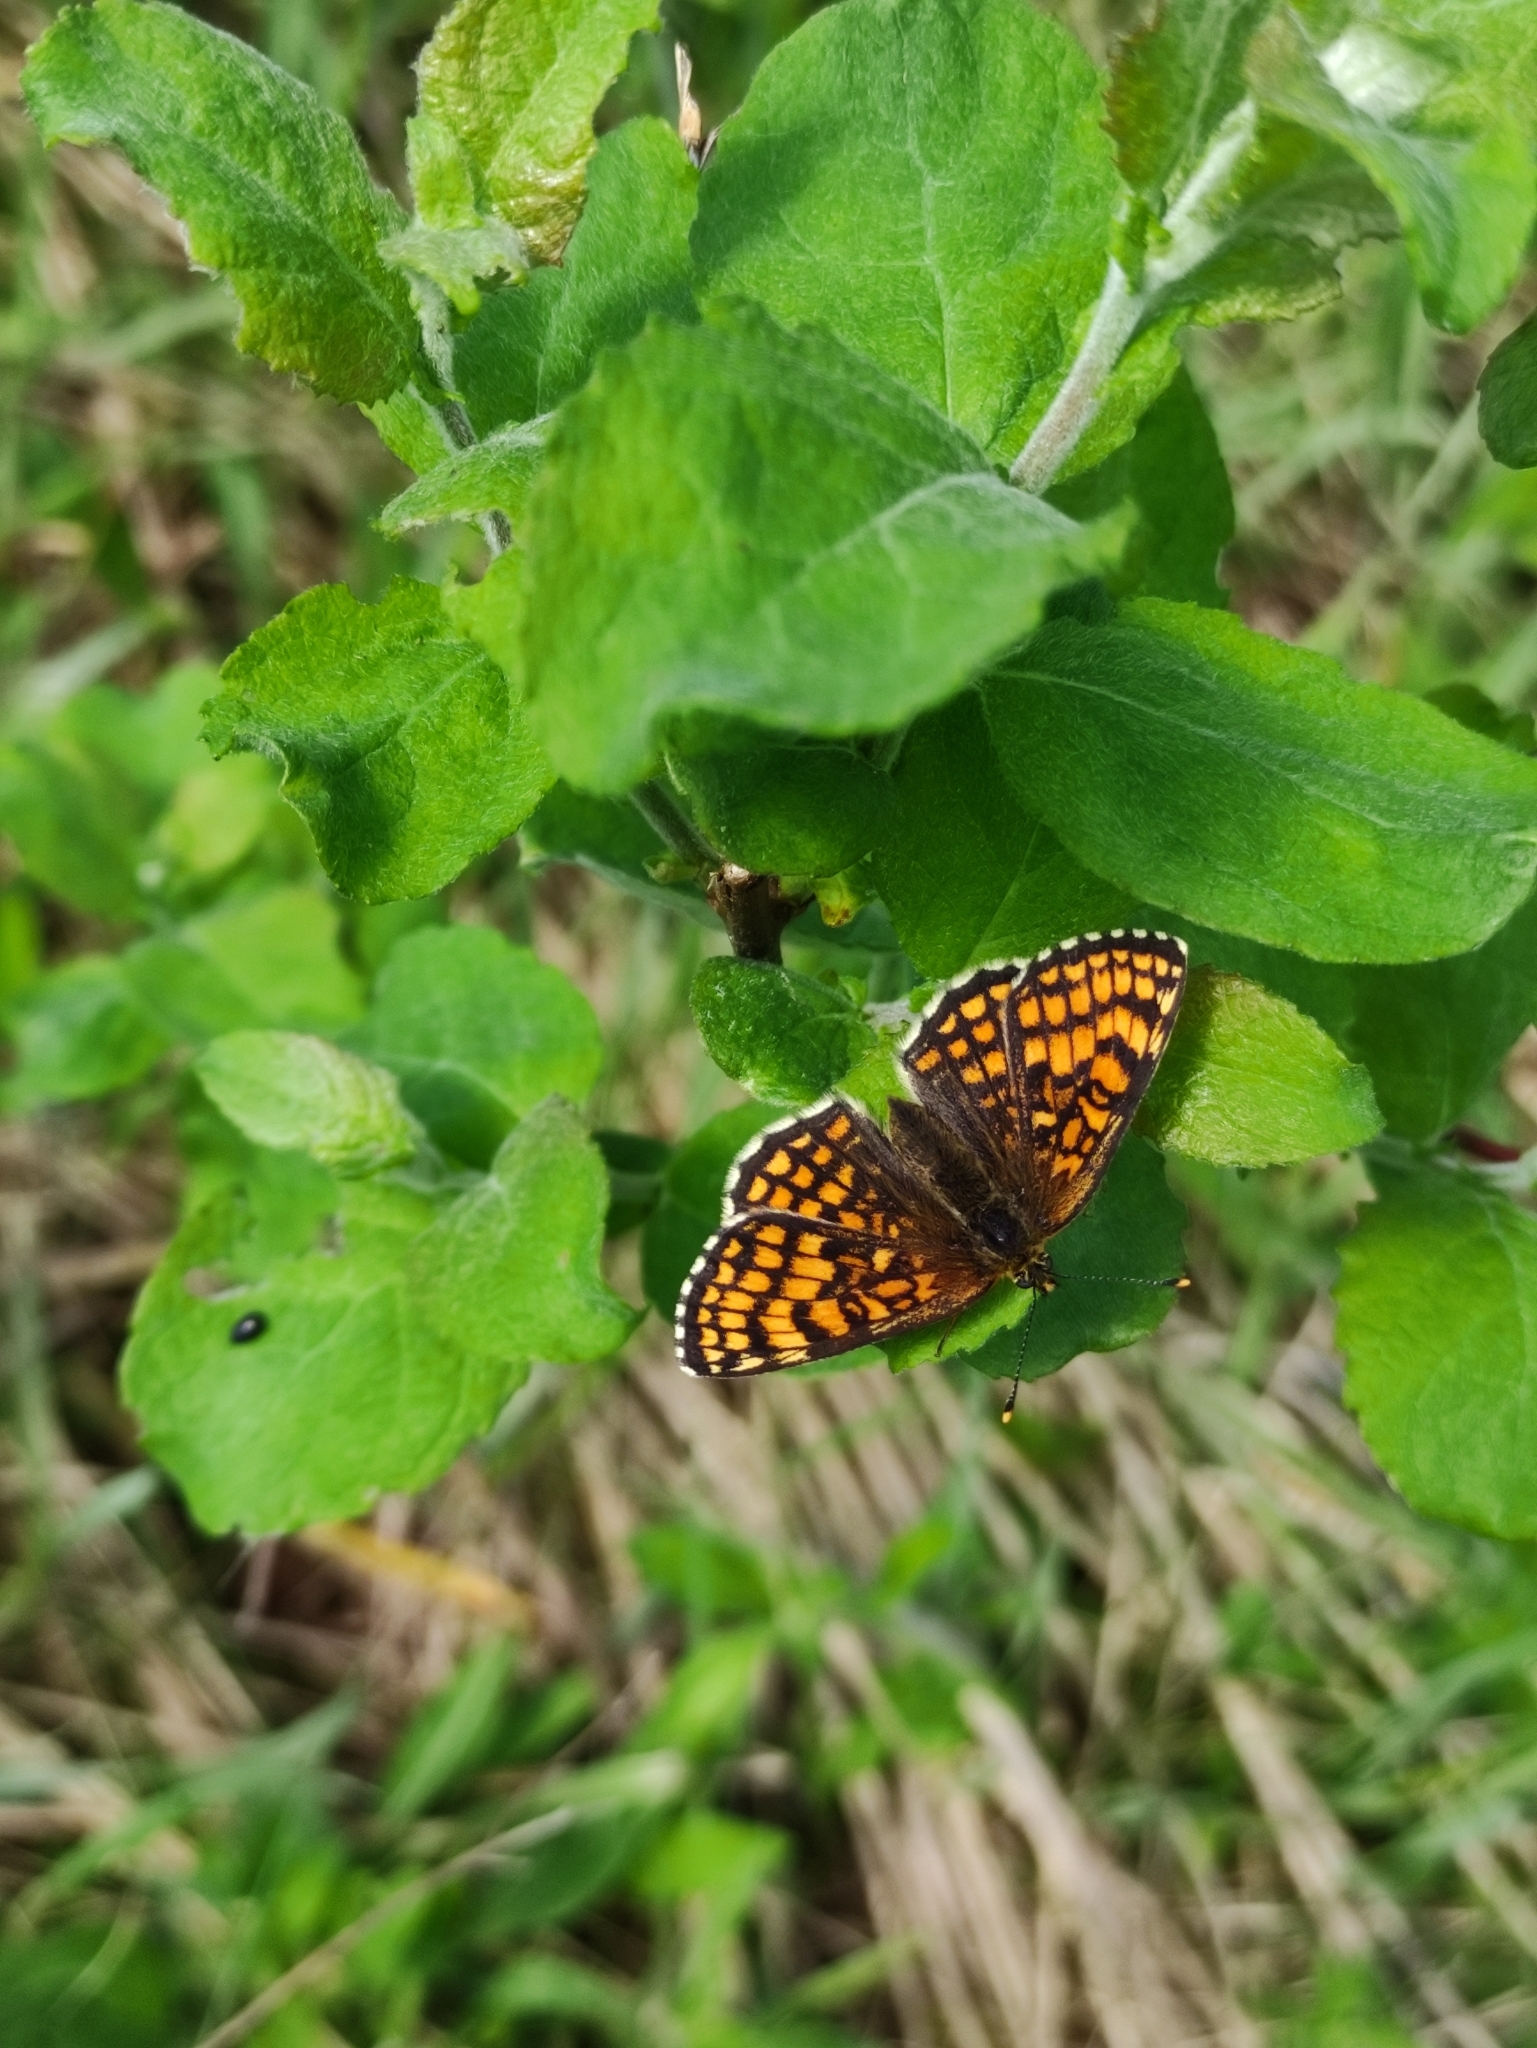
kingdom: Animalia
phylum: Arthropoda
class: Insecta
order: Lepidoptera
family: Nymphalidae
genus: Melitaea
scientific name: Melitaea athalia
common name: Heath fritillary
